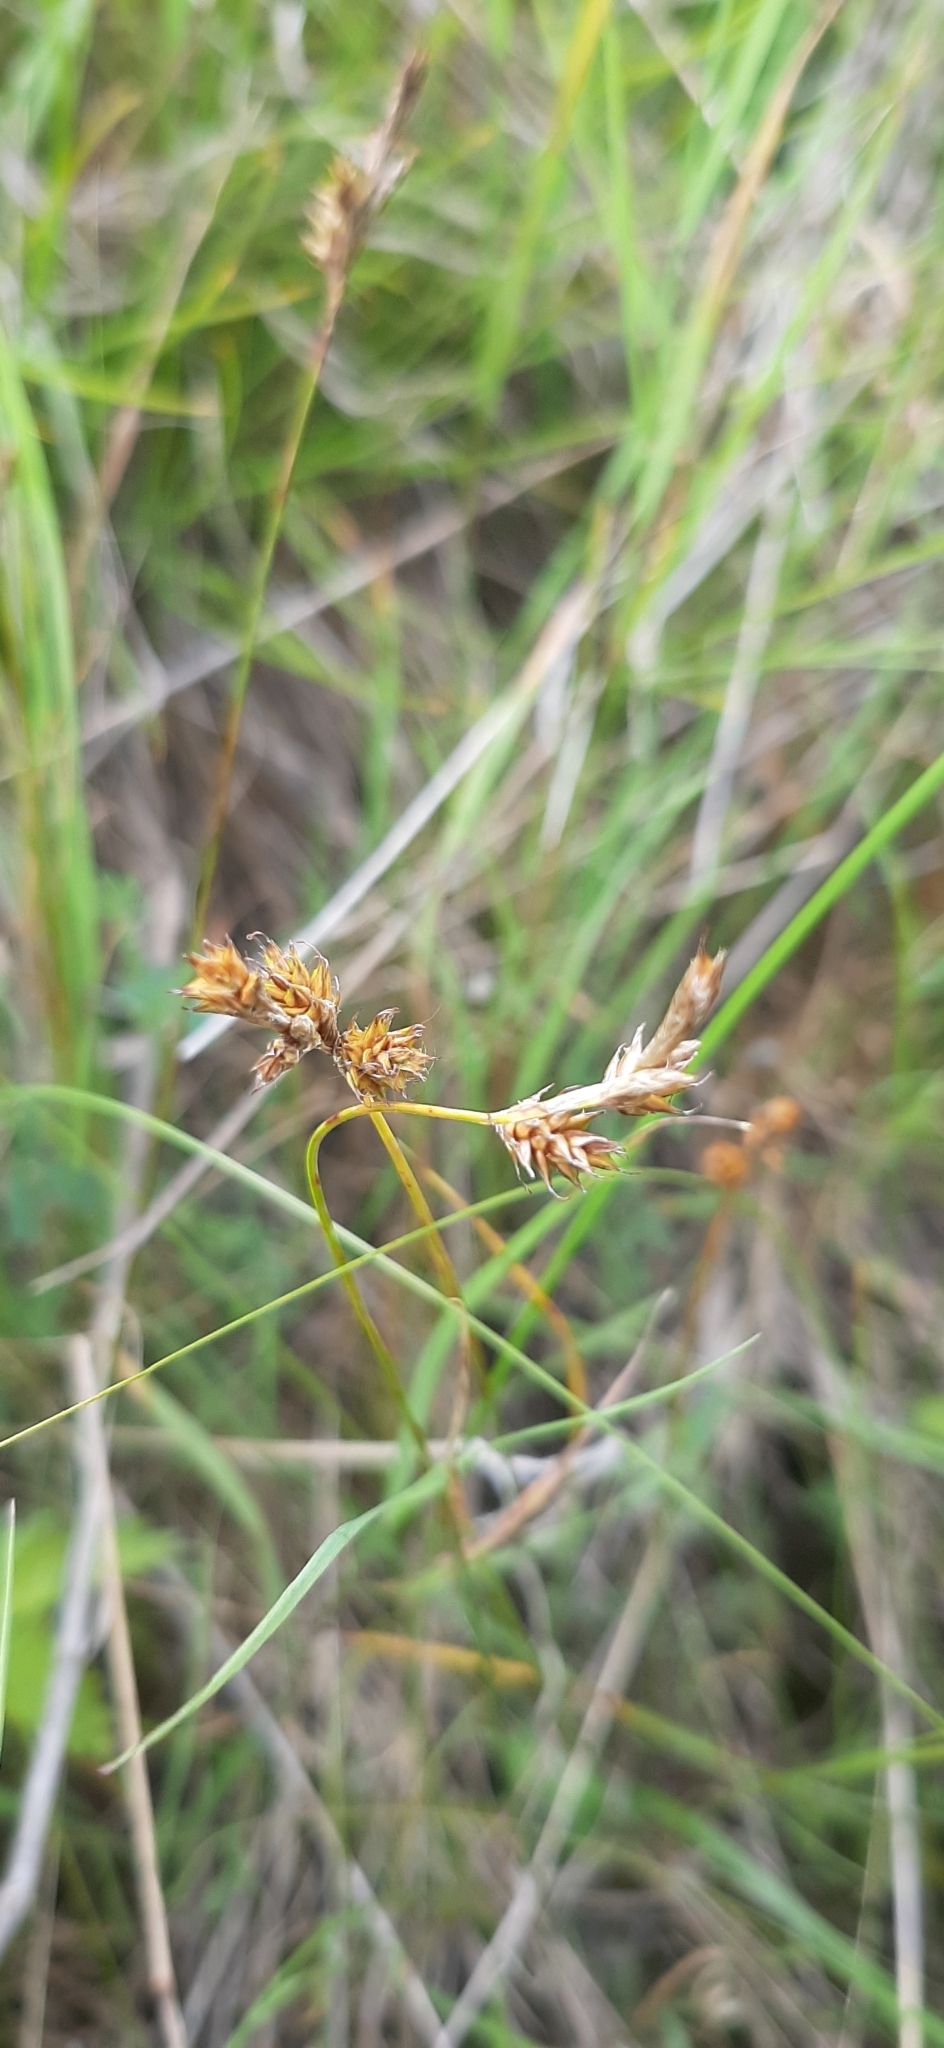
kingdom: Plantae
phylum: Tracheophyta
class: Liliopsida
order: Poales
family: Cyperaceae
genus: Carex
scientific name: Carex praecox
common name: Early sedge
